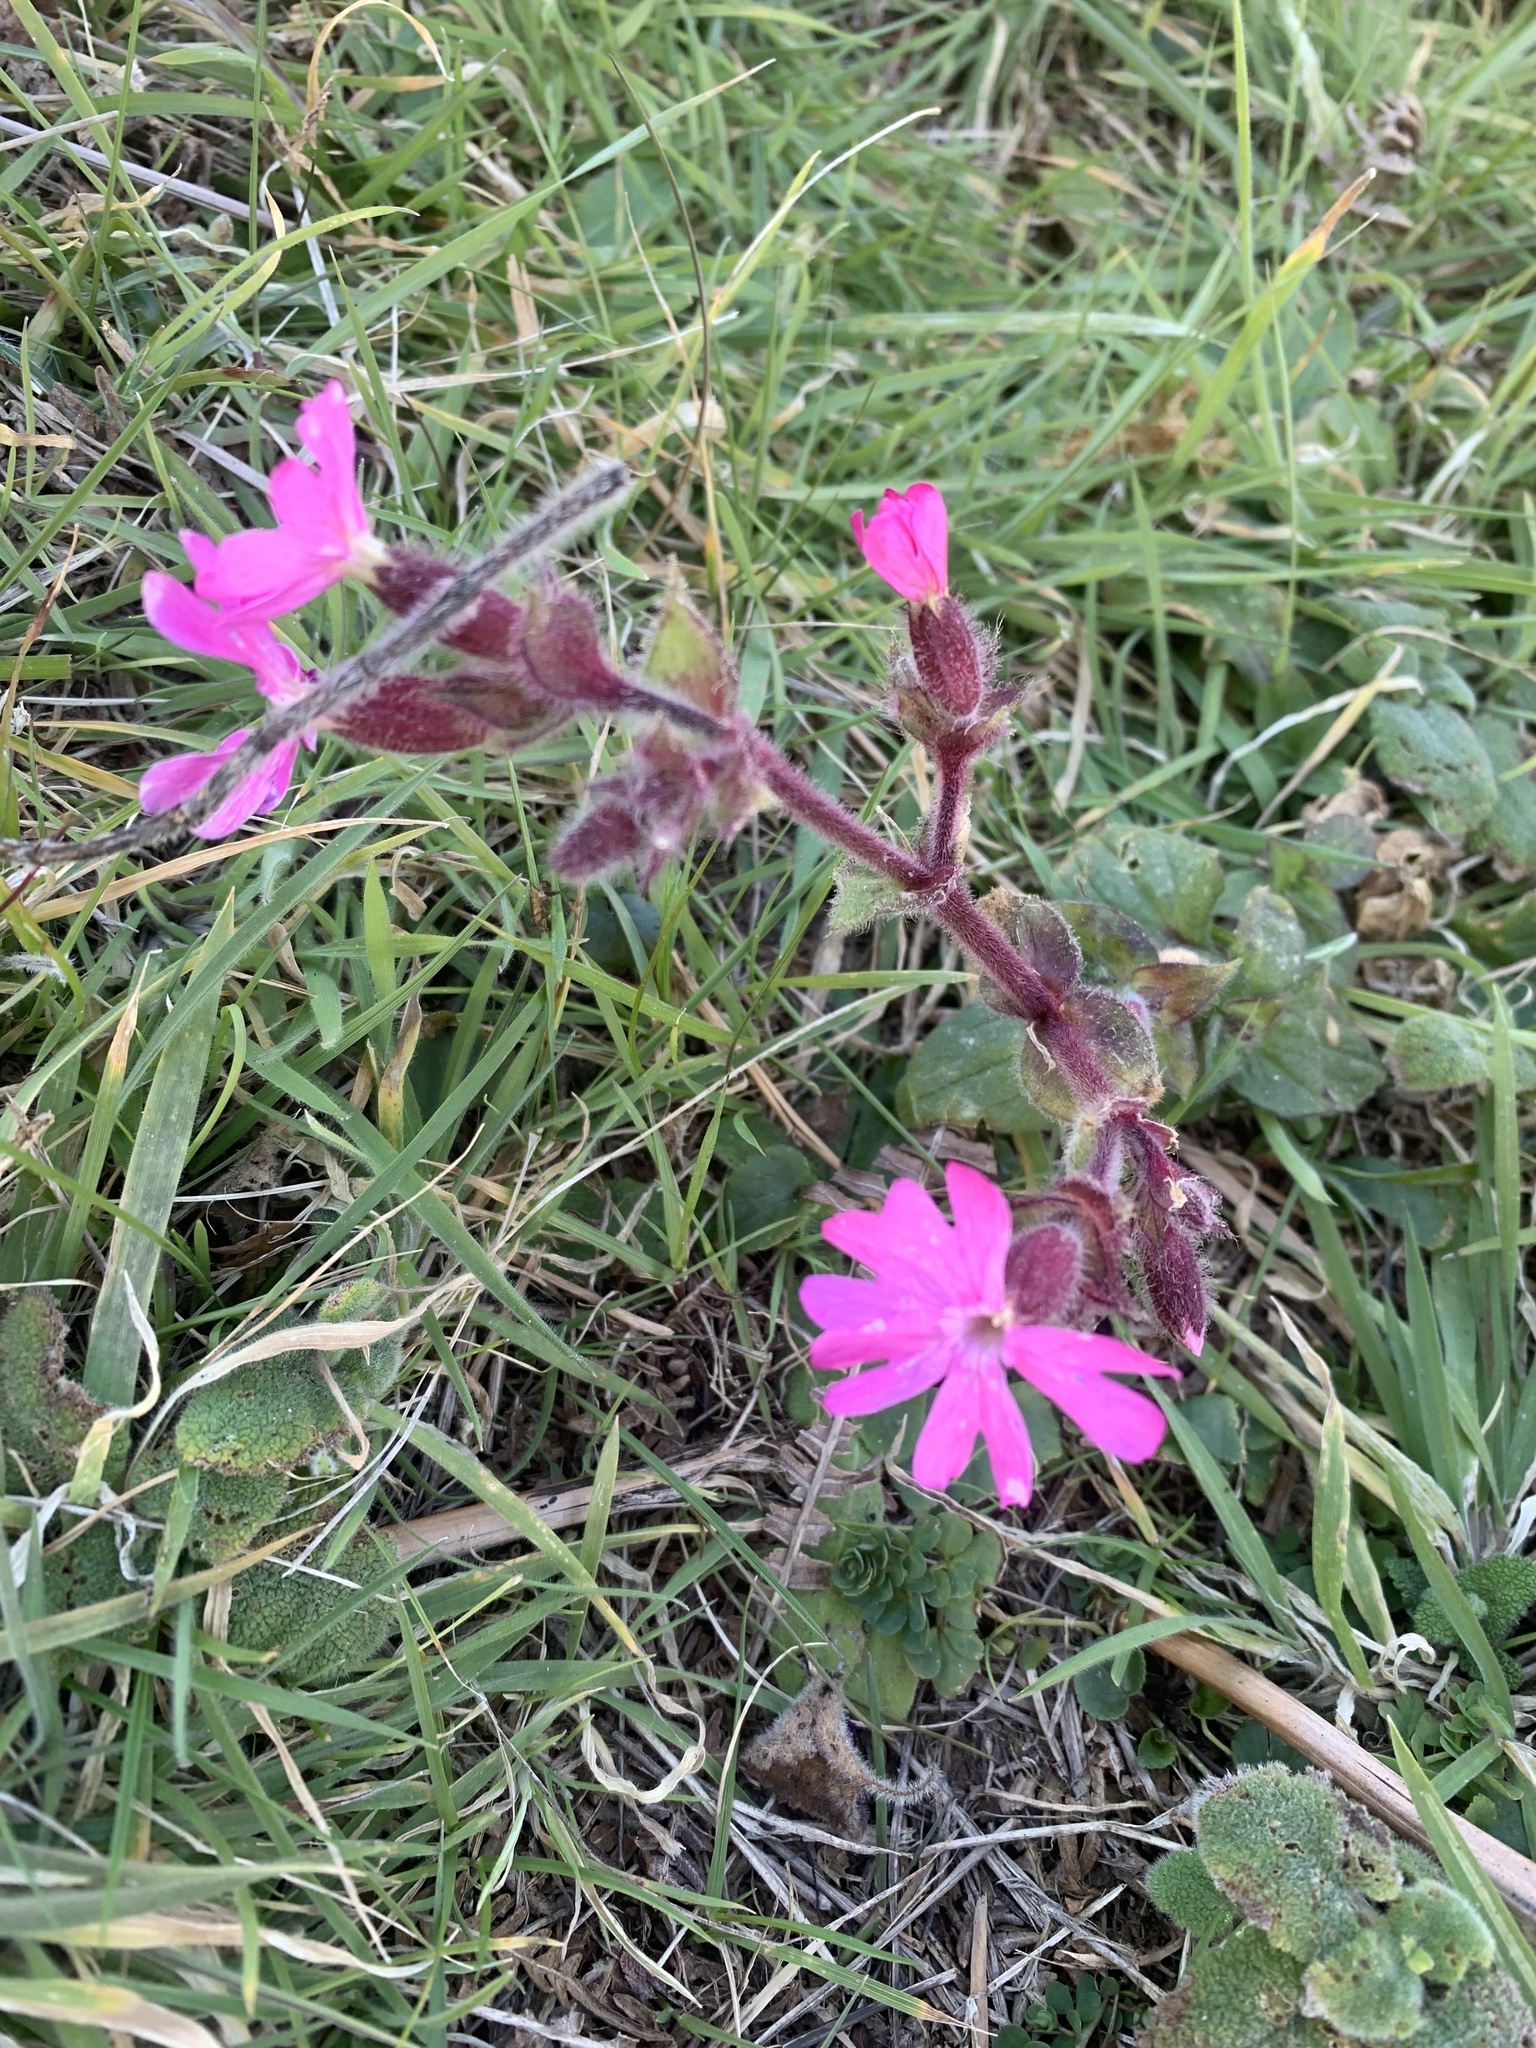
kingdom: Plantae
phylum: Tracheophyta
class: Magnoliopsida
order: Caryophyllales
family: Caryophyllaceae
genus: Silene
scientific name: Silene dioica
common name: Red campion
